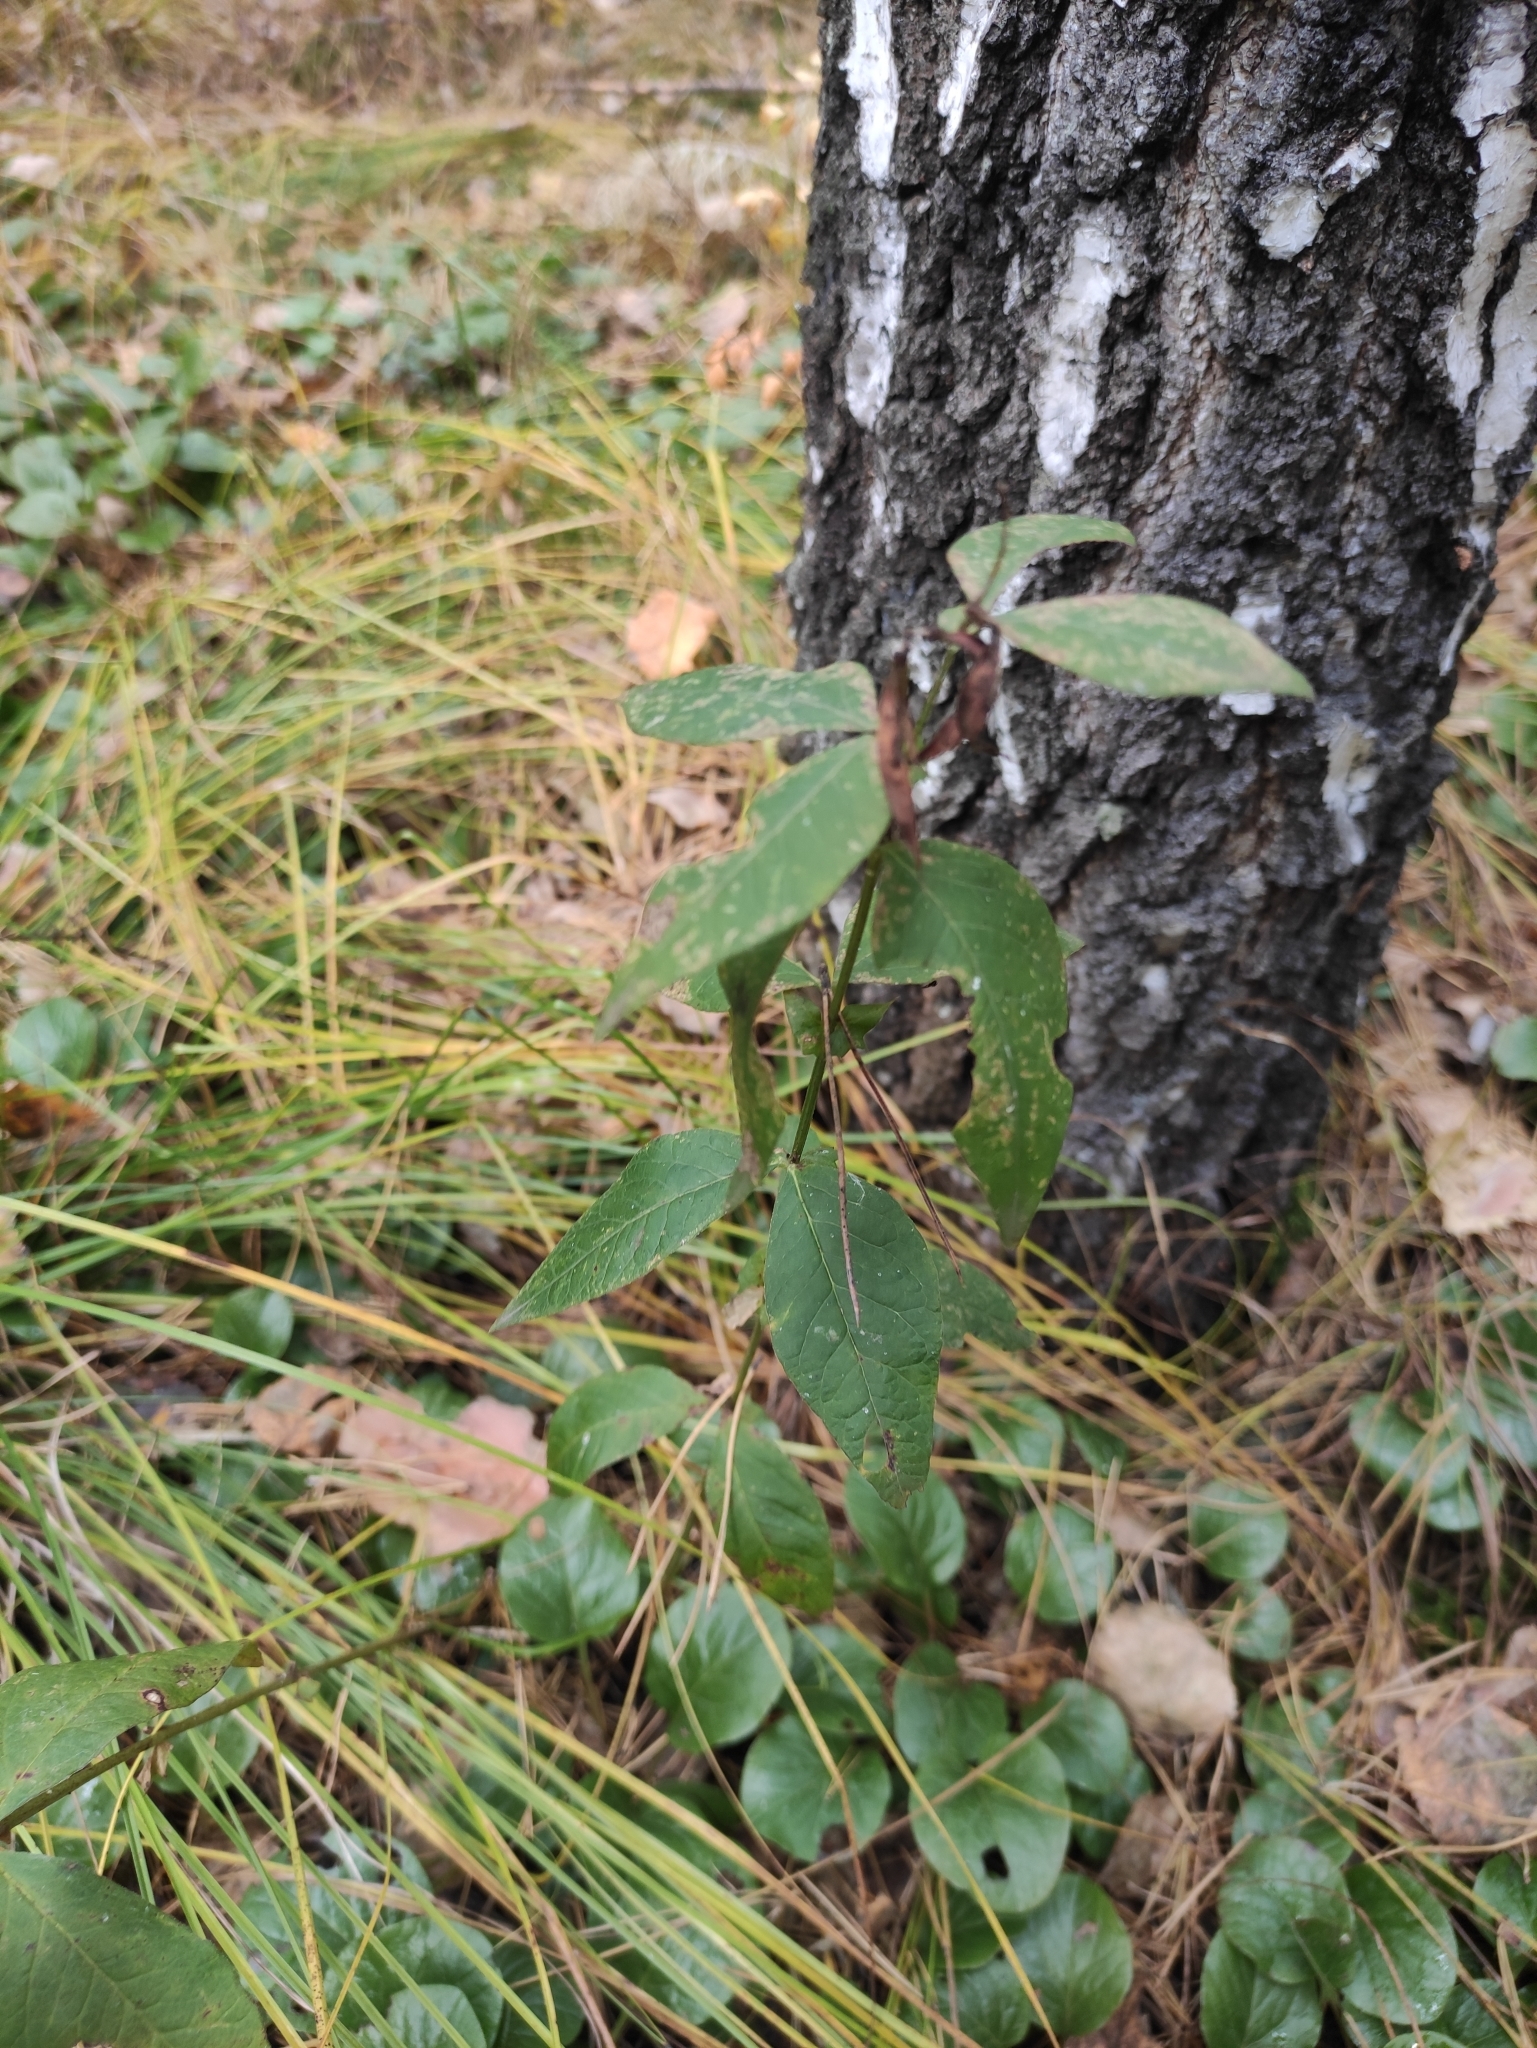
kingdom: Plantae
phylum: Tracheophyta
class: Magnoliopsida
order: Fabales
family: Fabaceae
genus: Vicia
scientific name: Vicia unijuga
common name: Two-leaf vetch
